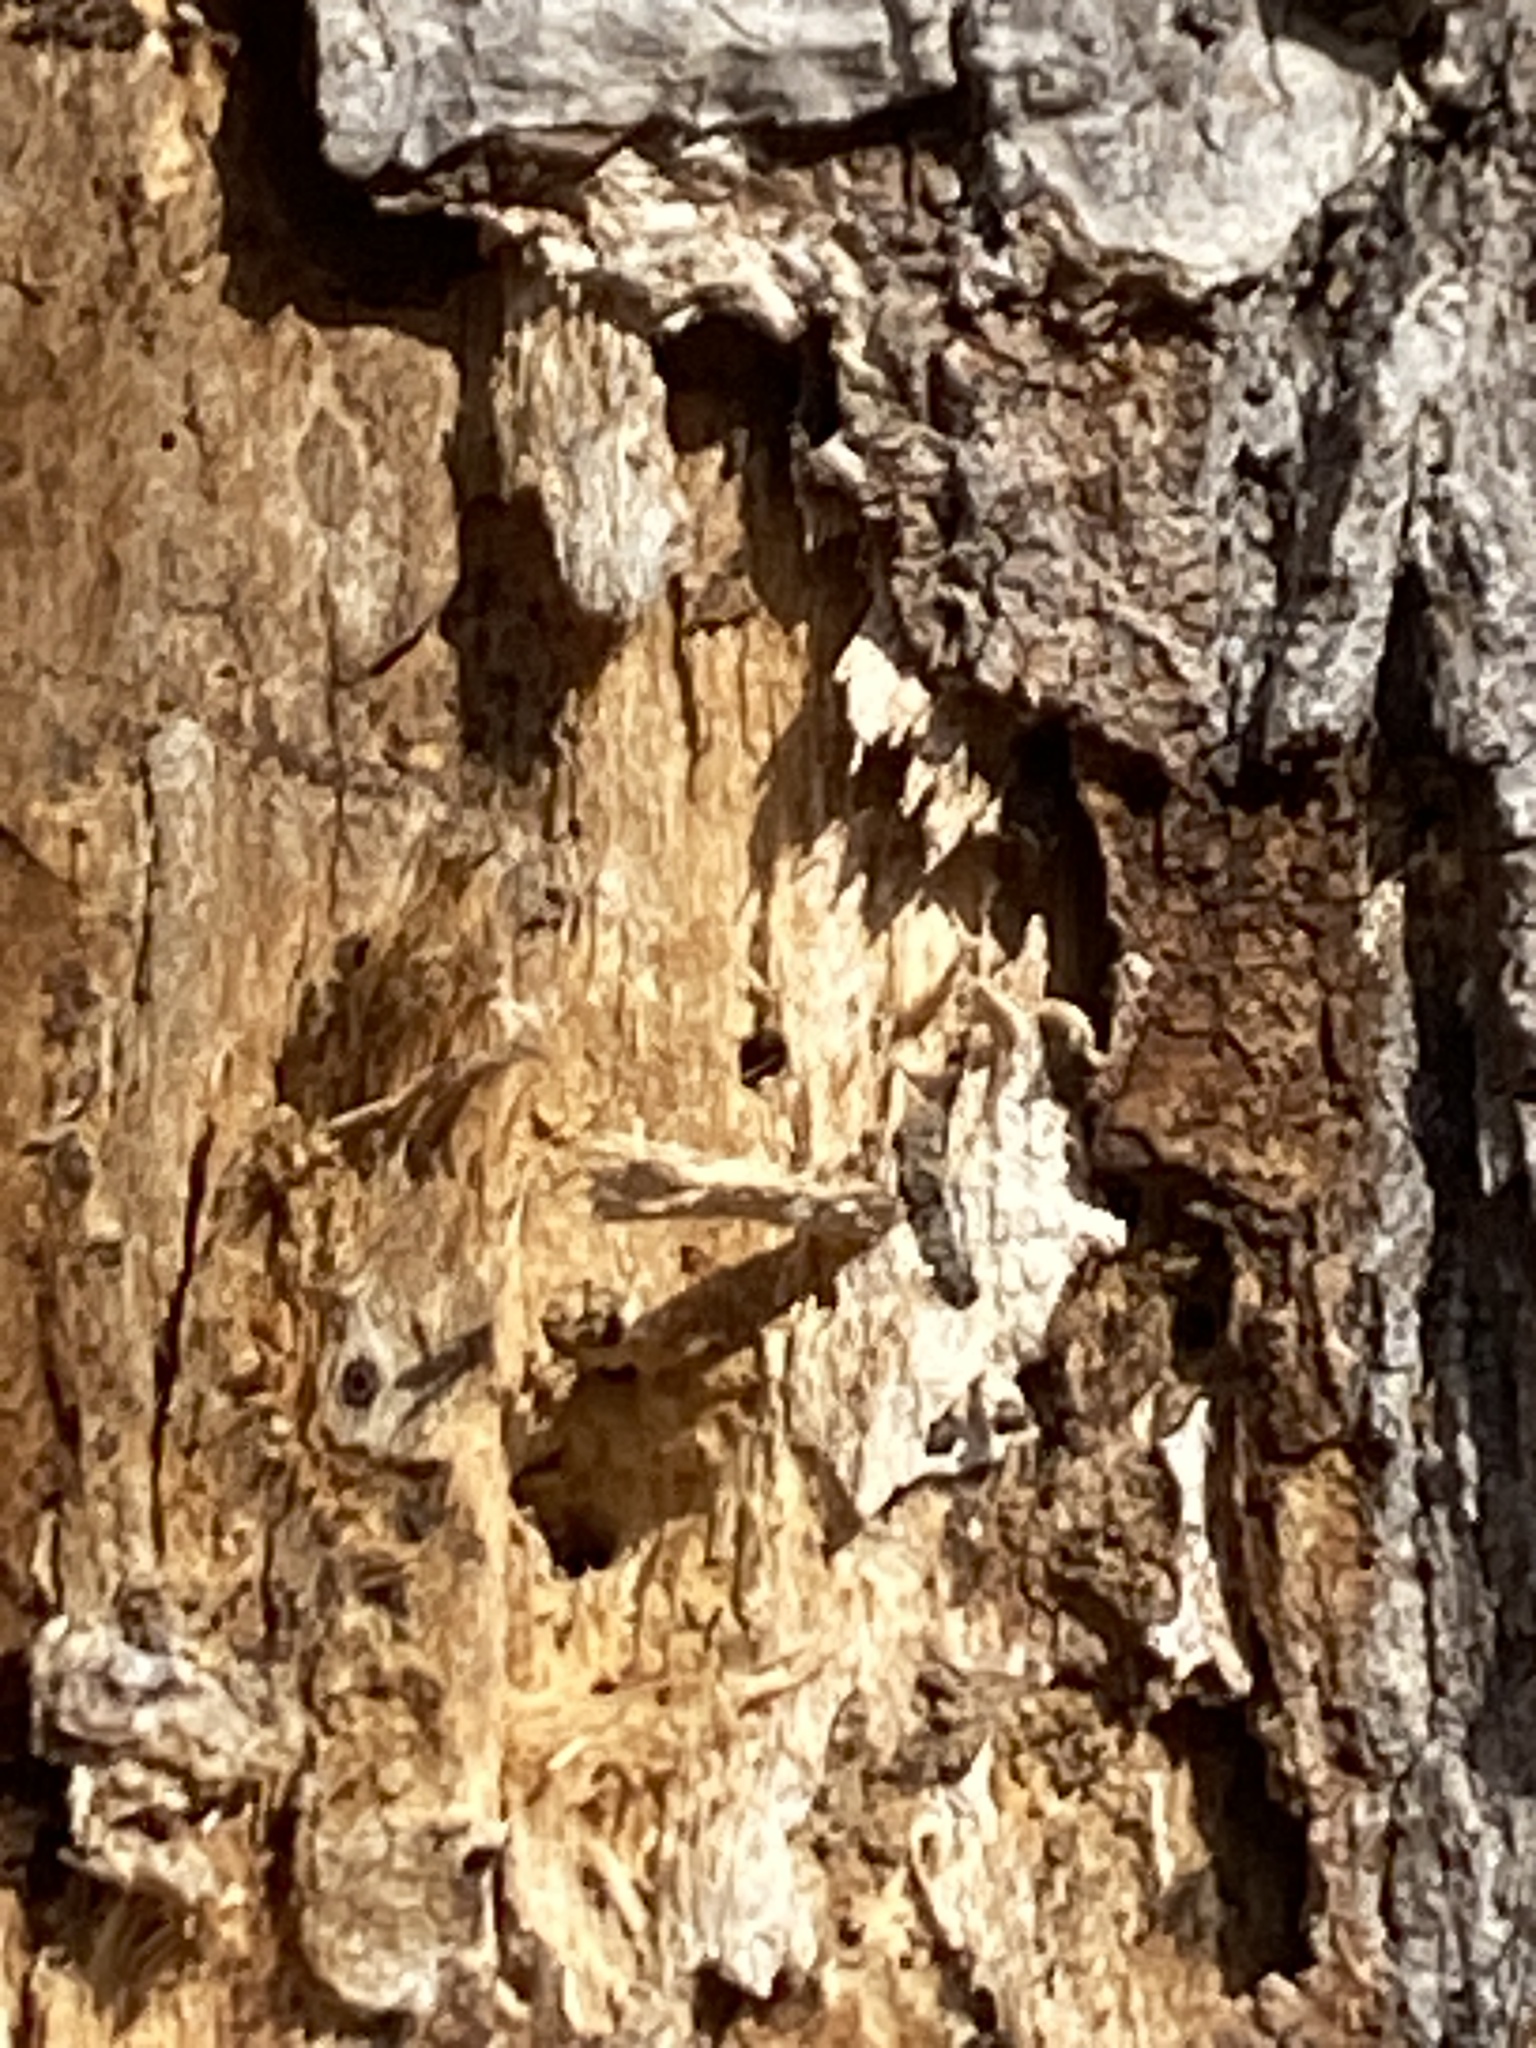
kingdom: Animalia
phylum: Chordata
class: Aves
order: Piciformes
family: Picidae
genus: Dryocopus
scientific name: Dryocopus pileatus
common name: Pileated woodpecker
